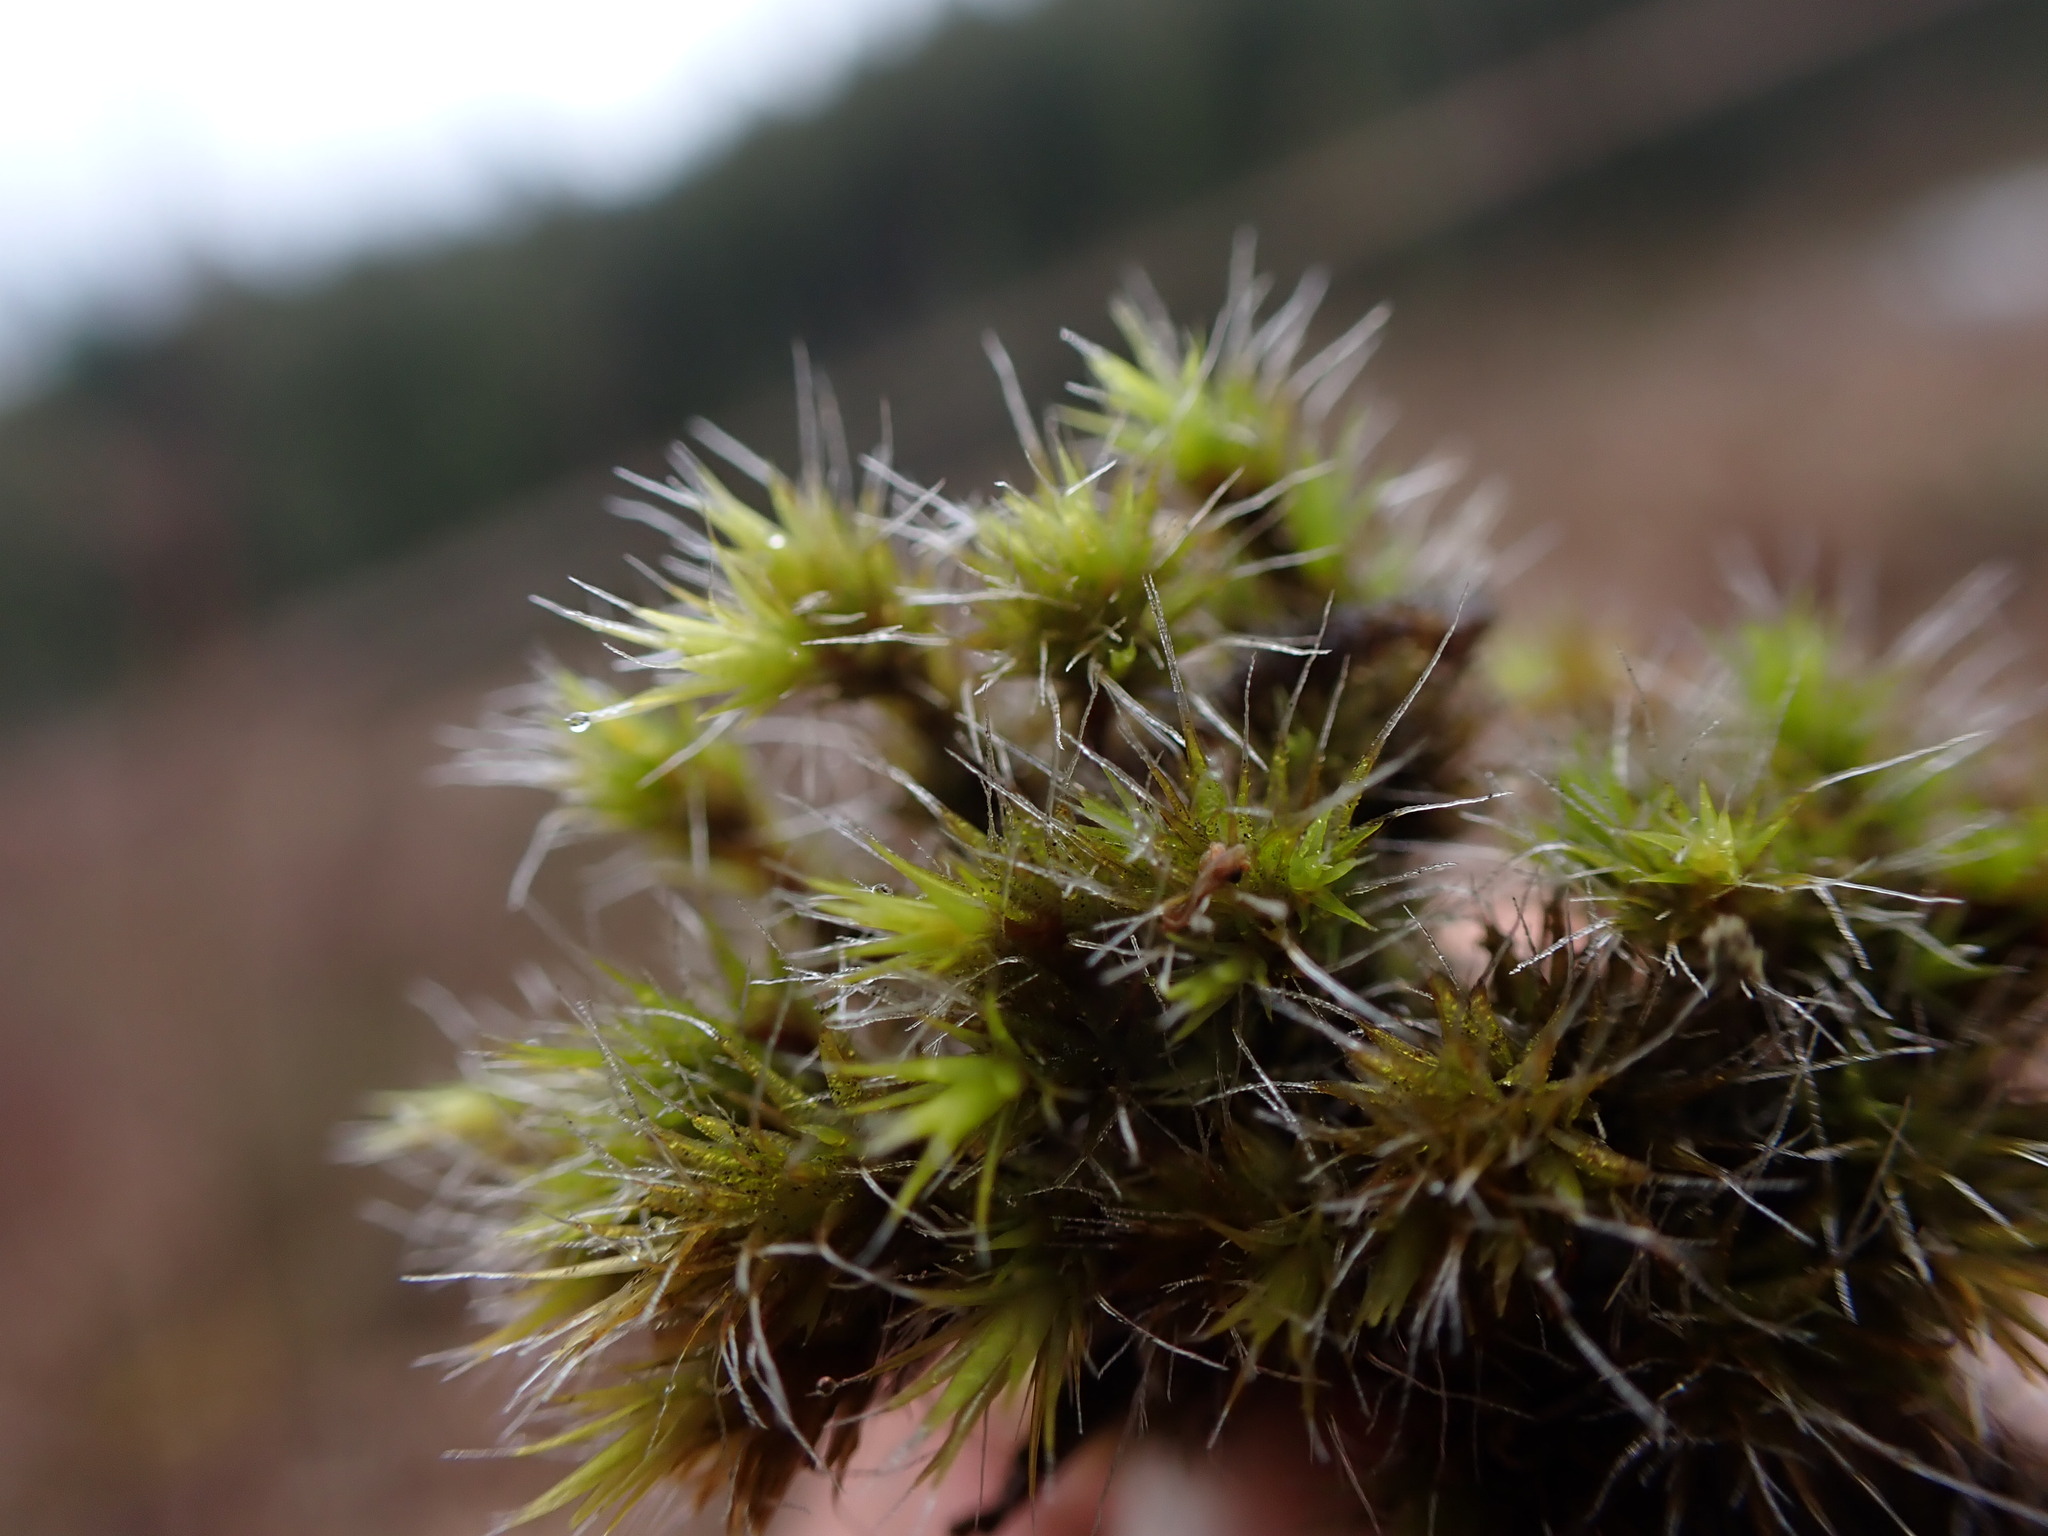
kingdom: Plantae
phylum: Bryophyta
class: Bryopsida
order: Dicranales
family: Leucobryaceae
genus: Campylopus
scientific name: Campylopus introflexus
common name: Heath star moss
